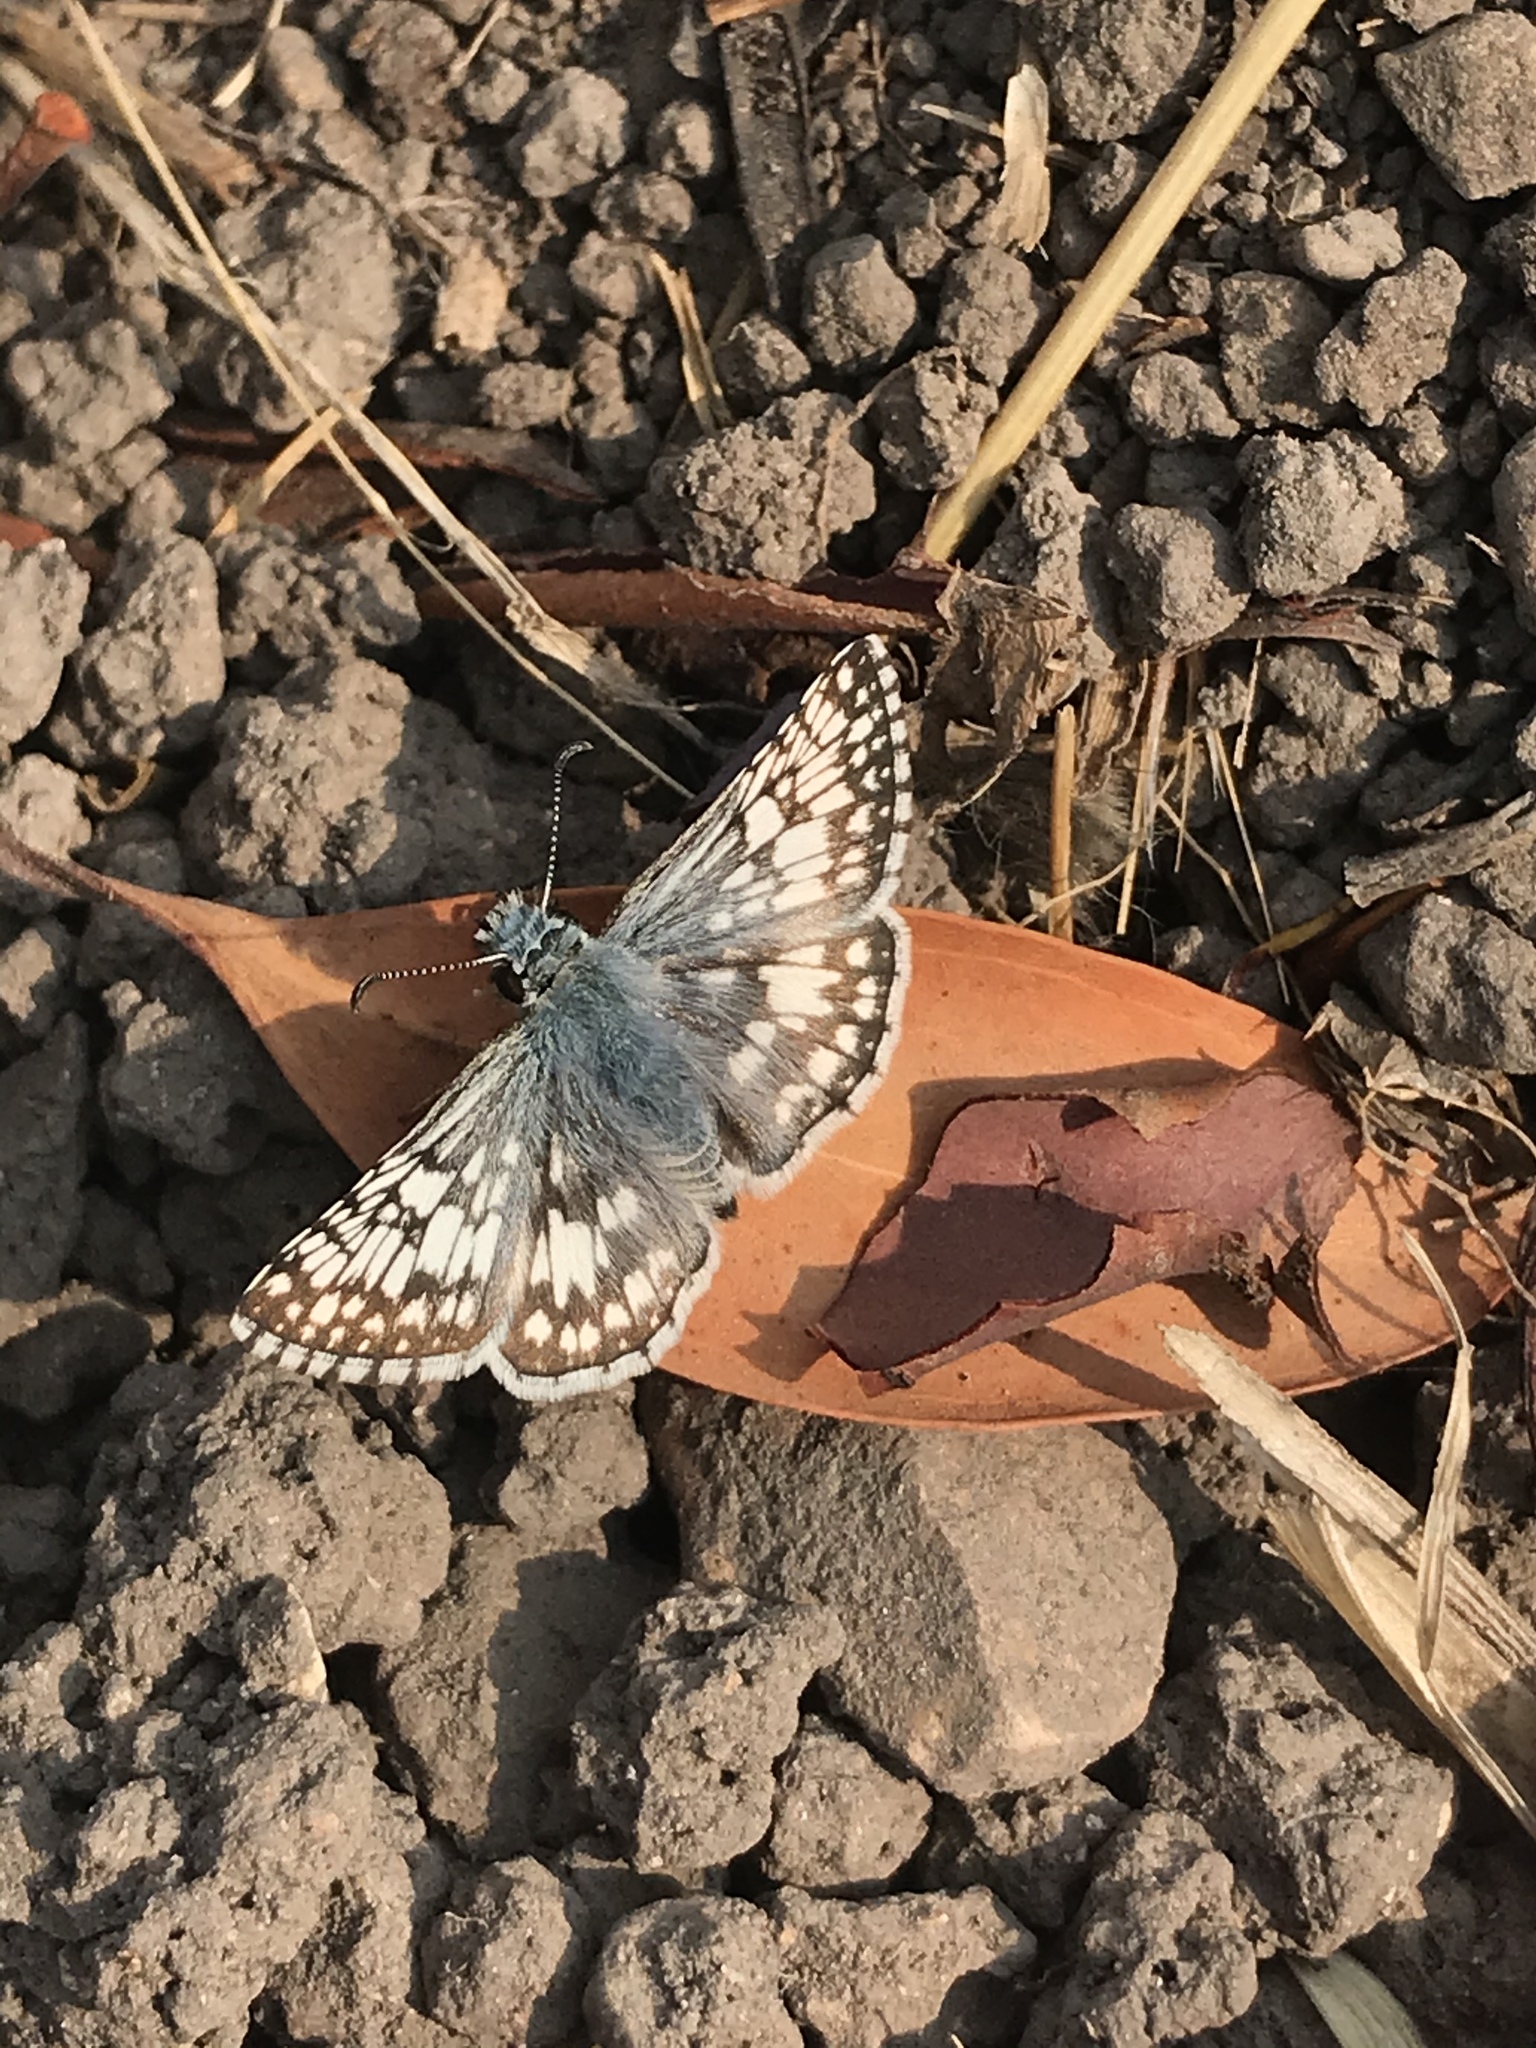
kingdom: Animalia
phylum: Arthropoda
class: Insecta
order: Lepidoptera
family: Hesperiidae
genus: Burnsius
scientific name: Burnsius albezens
